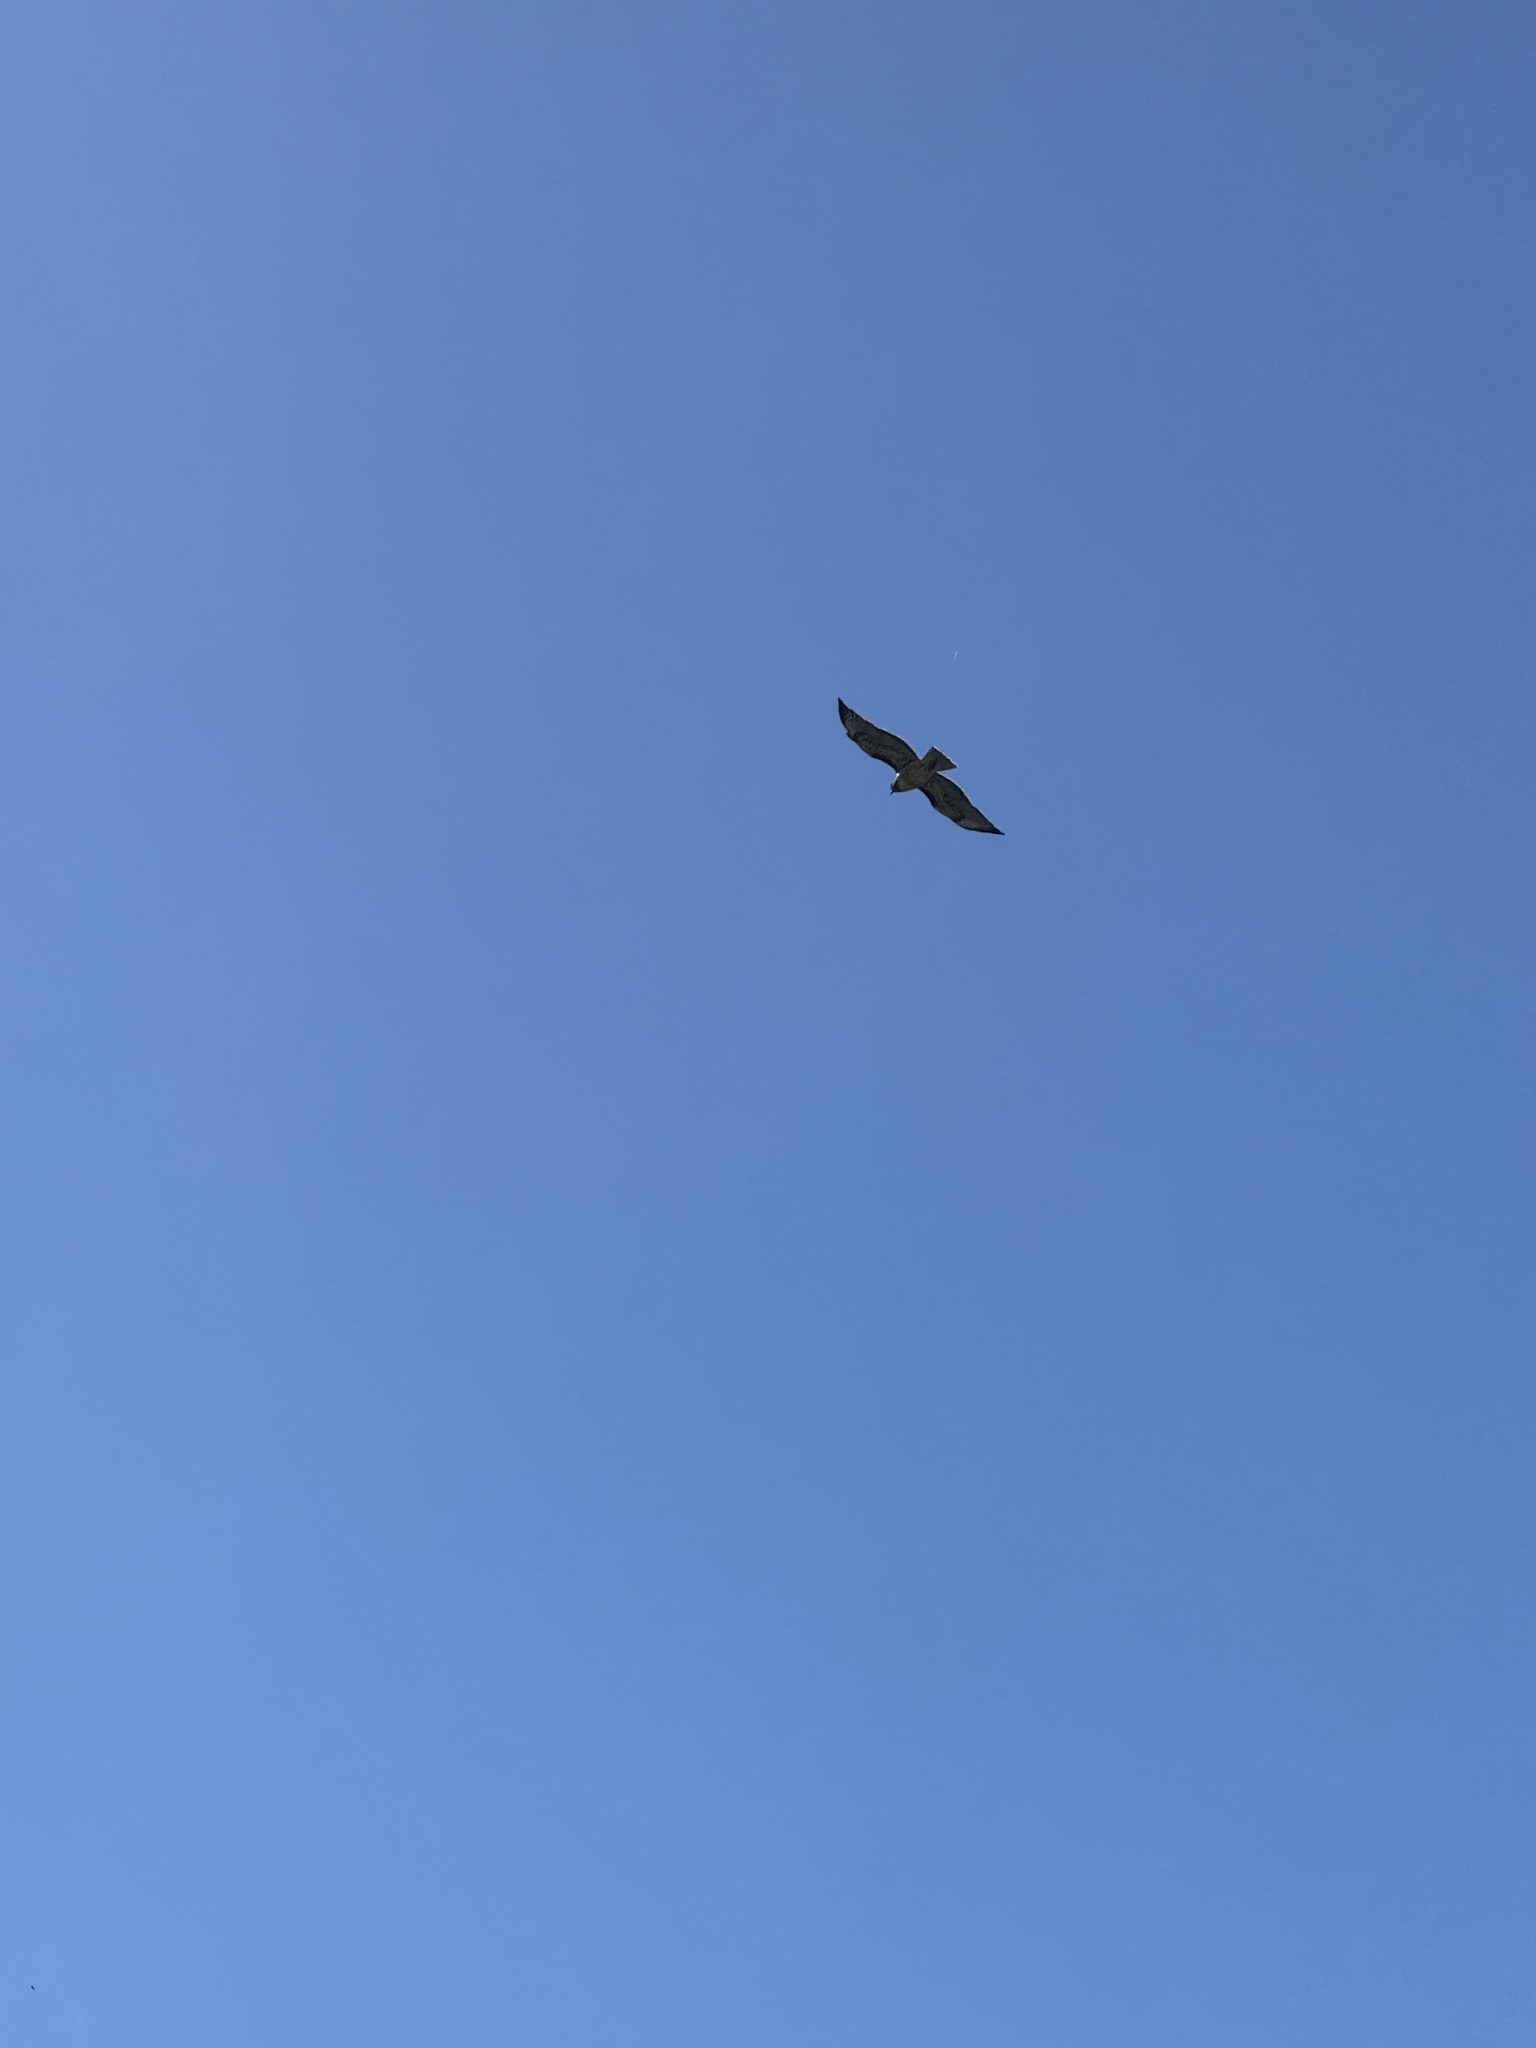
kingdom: Animalia
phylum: Chordata
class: Aves
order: Accipitriformes
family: Accipitridae
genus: Buteo
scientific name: Buteo jamaicensis
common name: Red-tailed hawk
